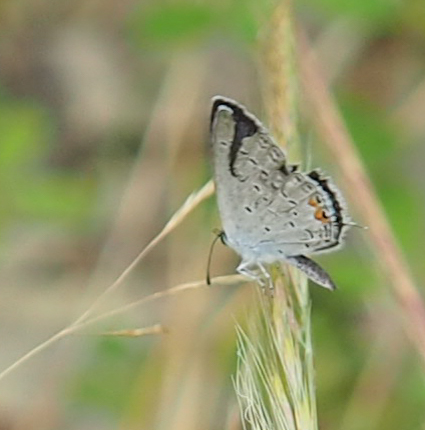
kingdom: Animalia
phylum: Arthropoda
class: Insecta
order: Lepidoptera
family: Lycaenidae
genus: Elkalyce
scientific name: Elkalyce comyntas
